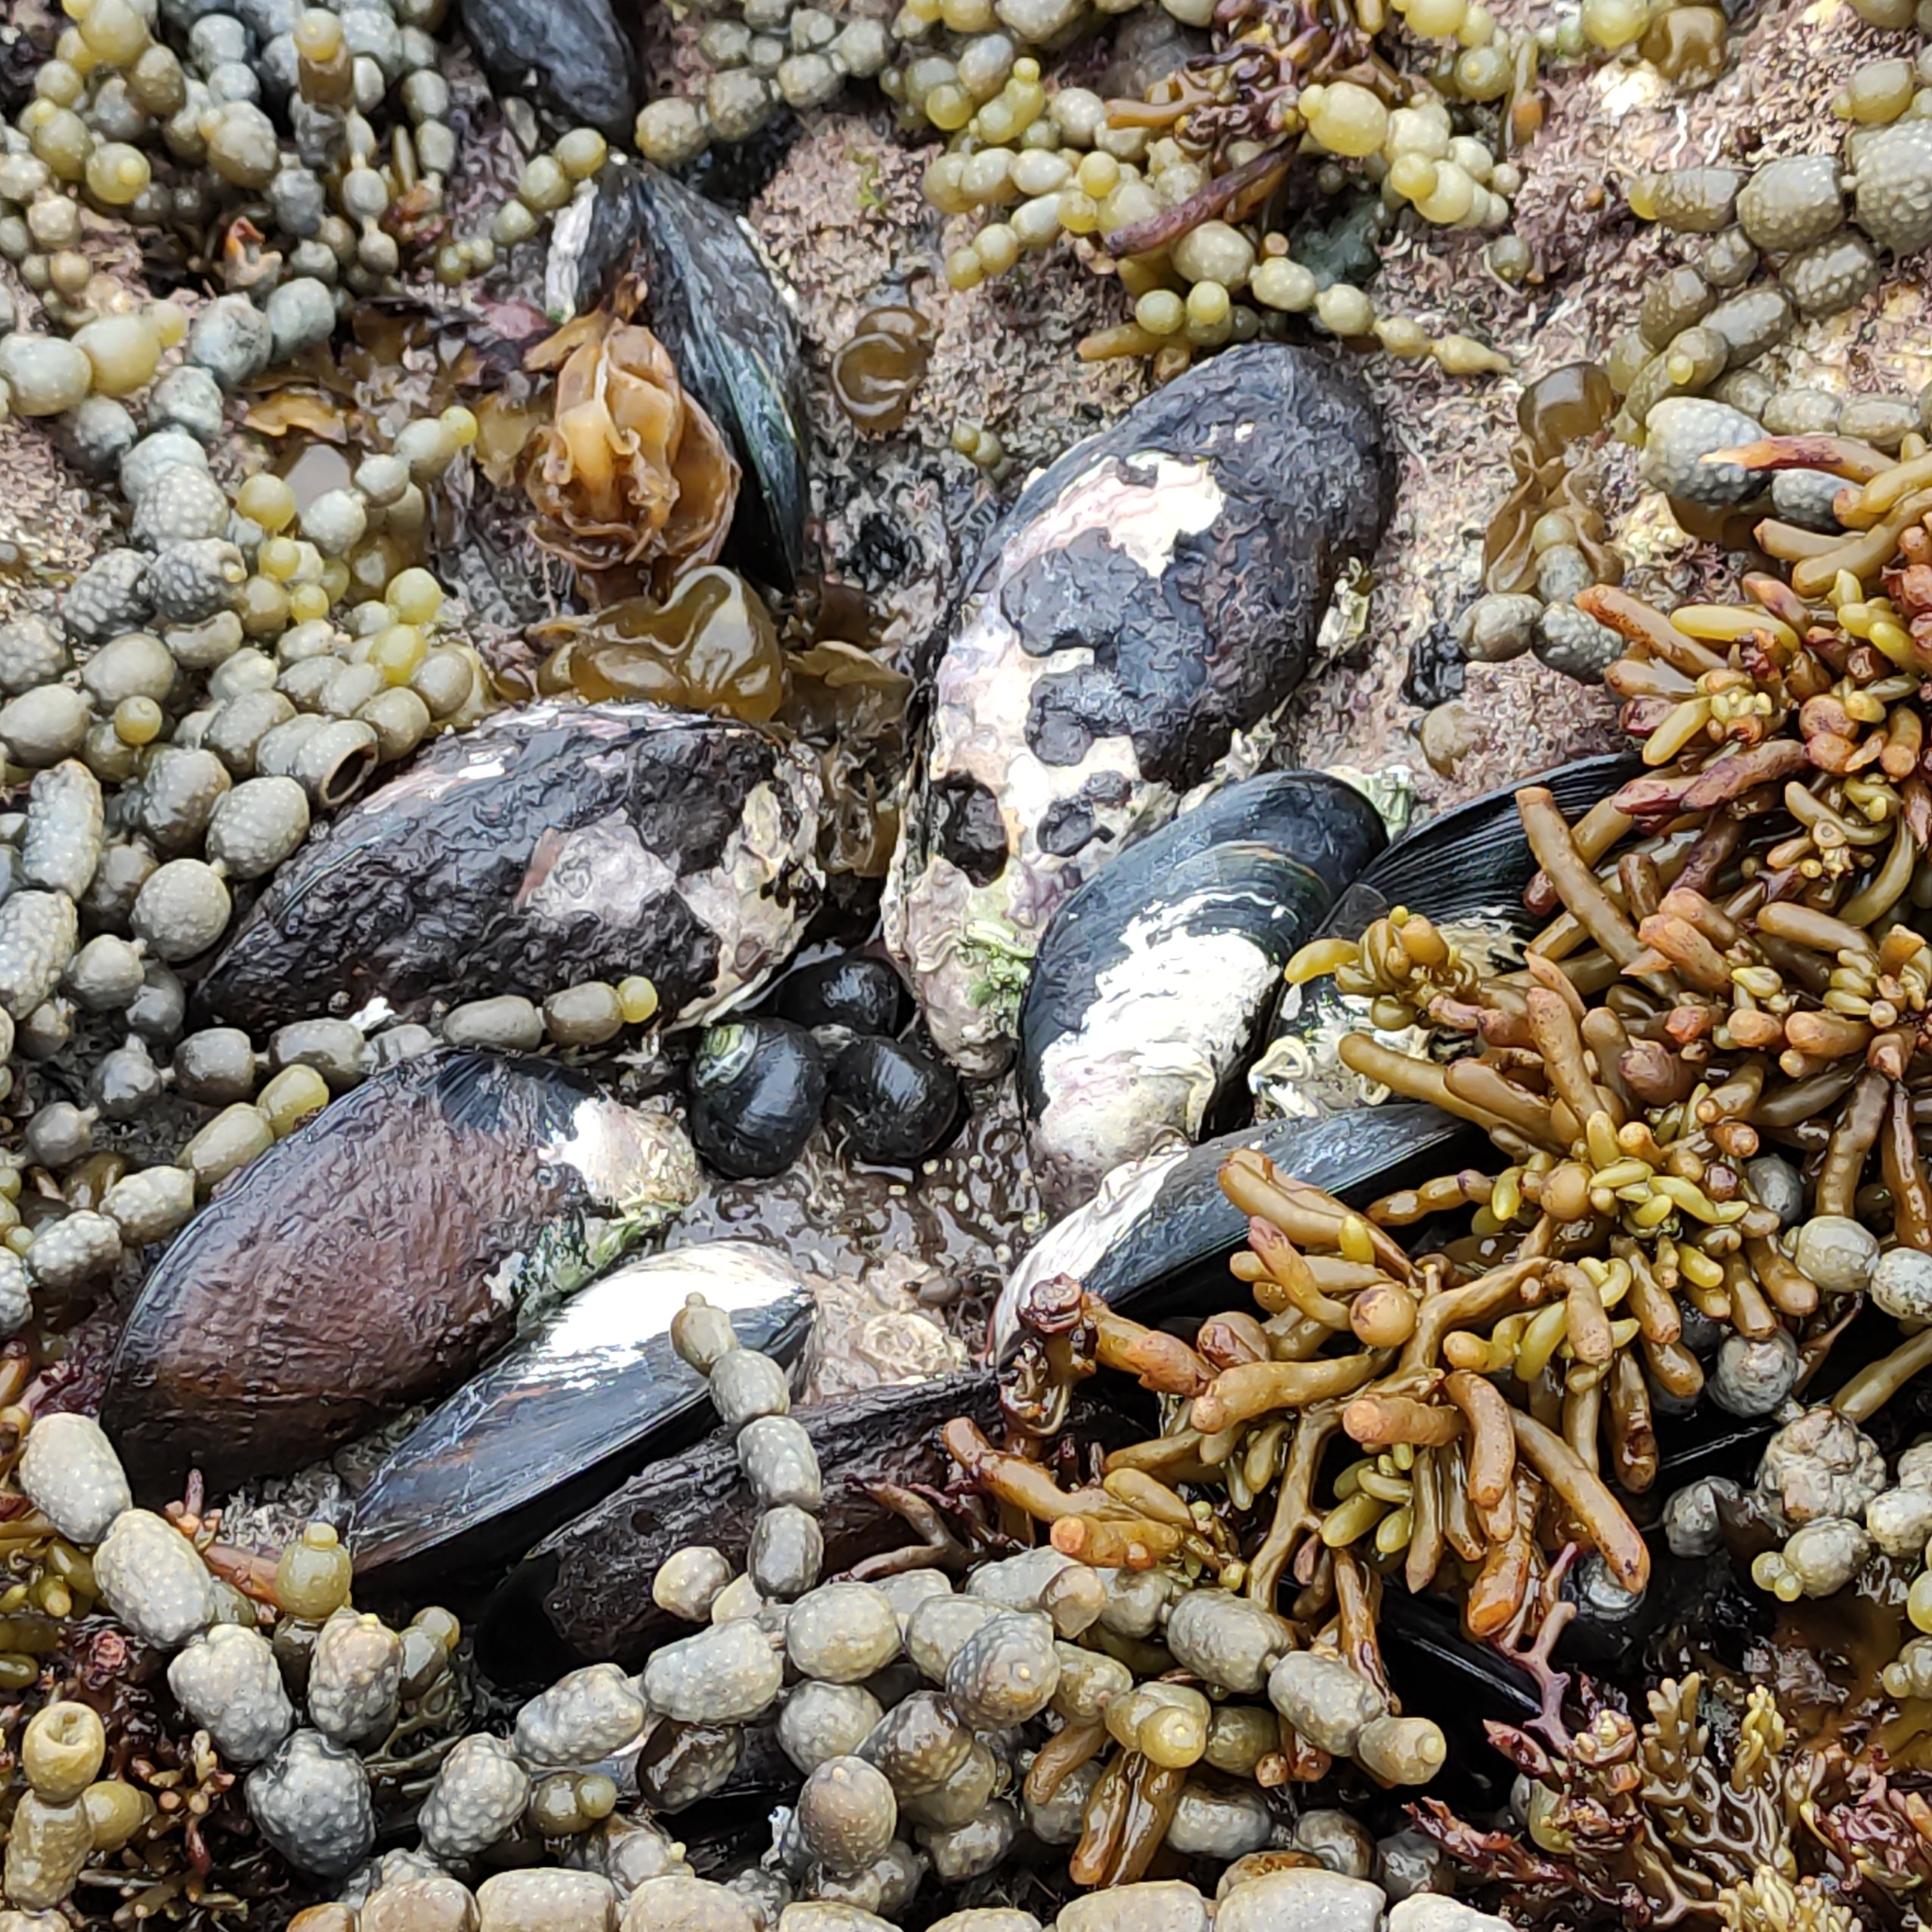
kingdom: Animalia
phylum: Mollusca
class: Bivalvia
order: Mytilida
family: Mytilidae
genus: Perna
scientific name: Perna canaliculus
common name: New zealand greenshelltm
